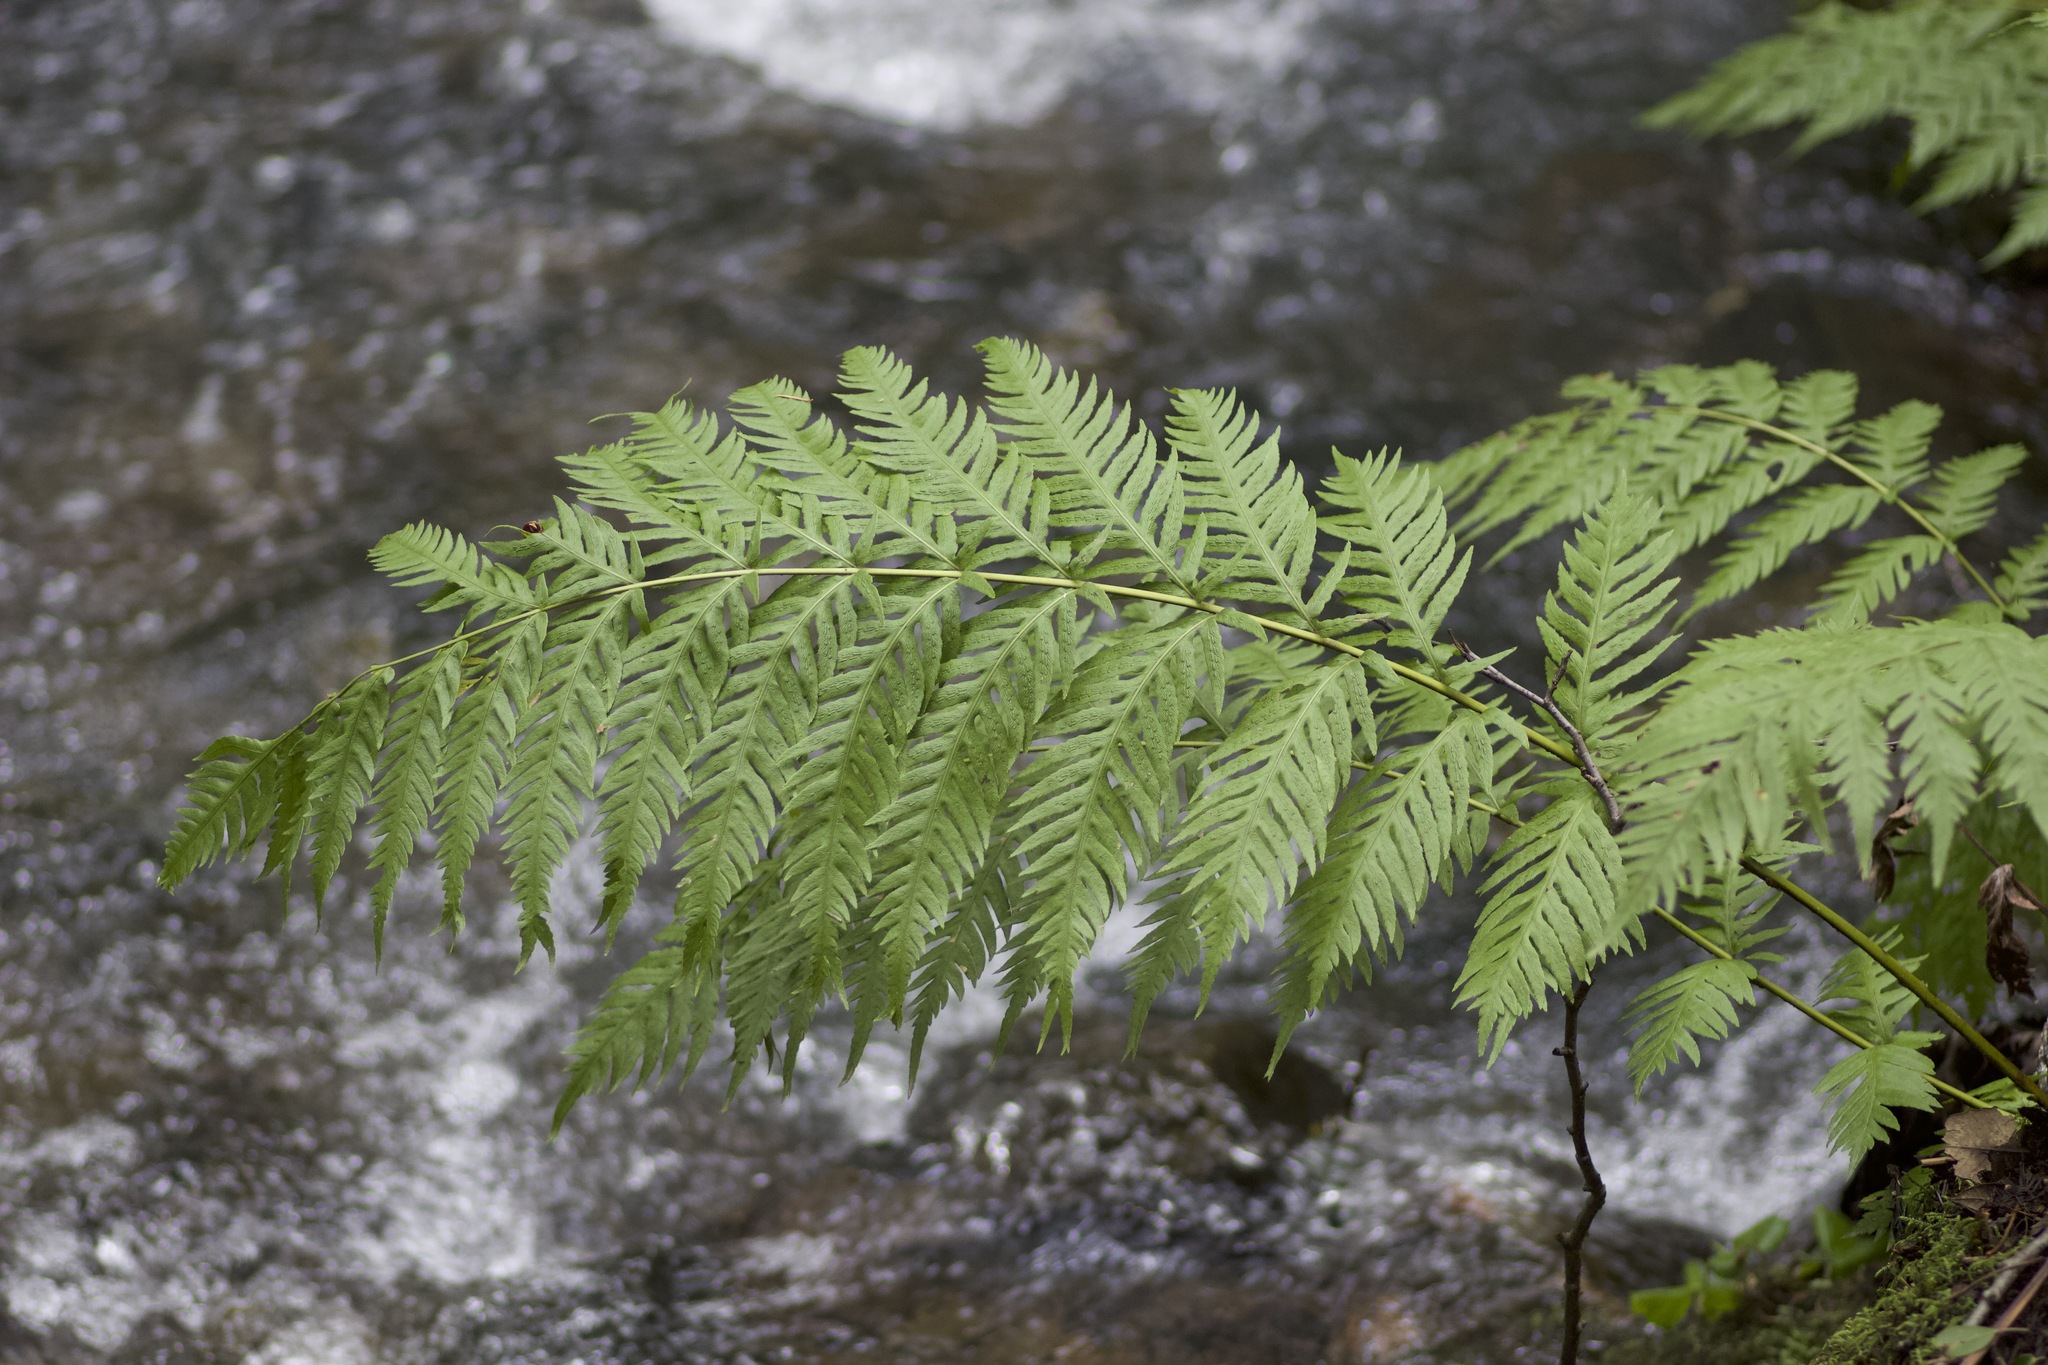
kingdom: Plantae
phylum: Tracheophyta
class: Polypodiopsida
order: Polypodiales
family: Blechnaceae
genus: Woodwardia
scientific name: Woodwardia fimbriata
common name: Giant chain fern
